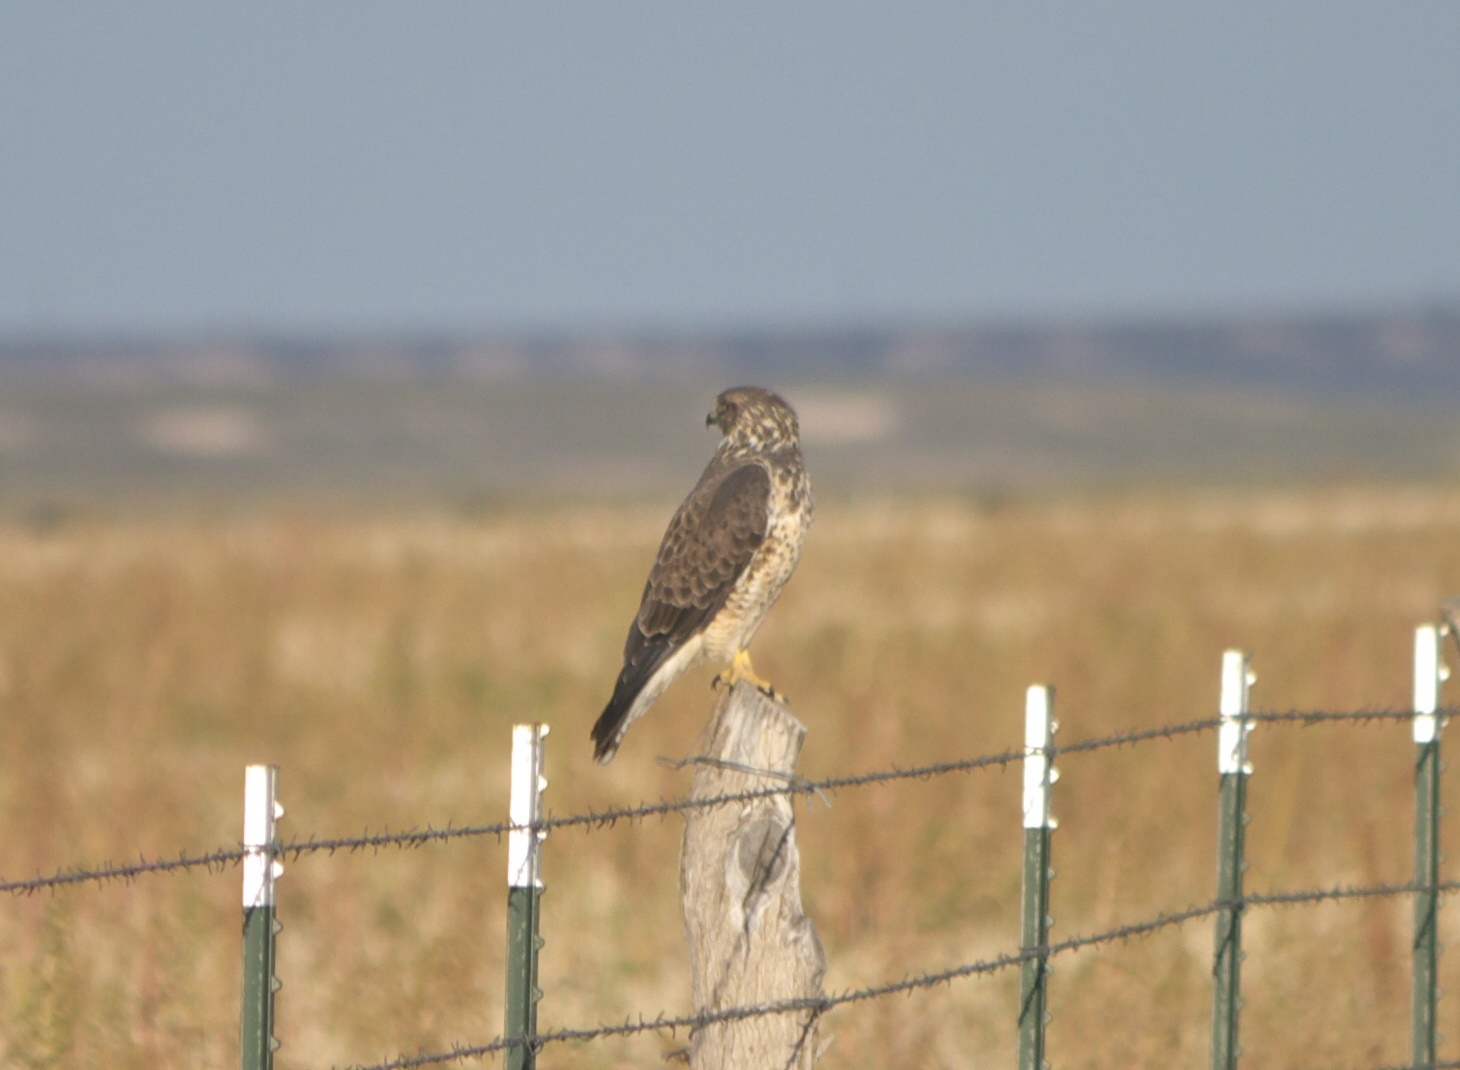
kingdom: Animalia
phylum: Chordata
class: Aves
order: Accipitriformes
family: Accipitridae
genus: Buteo
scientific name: Buteo swainsoni
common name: Swainson's hawk
